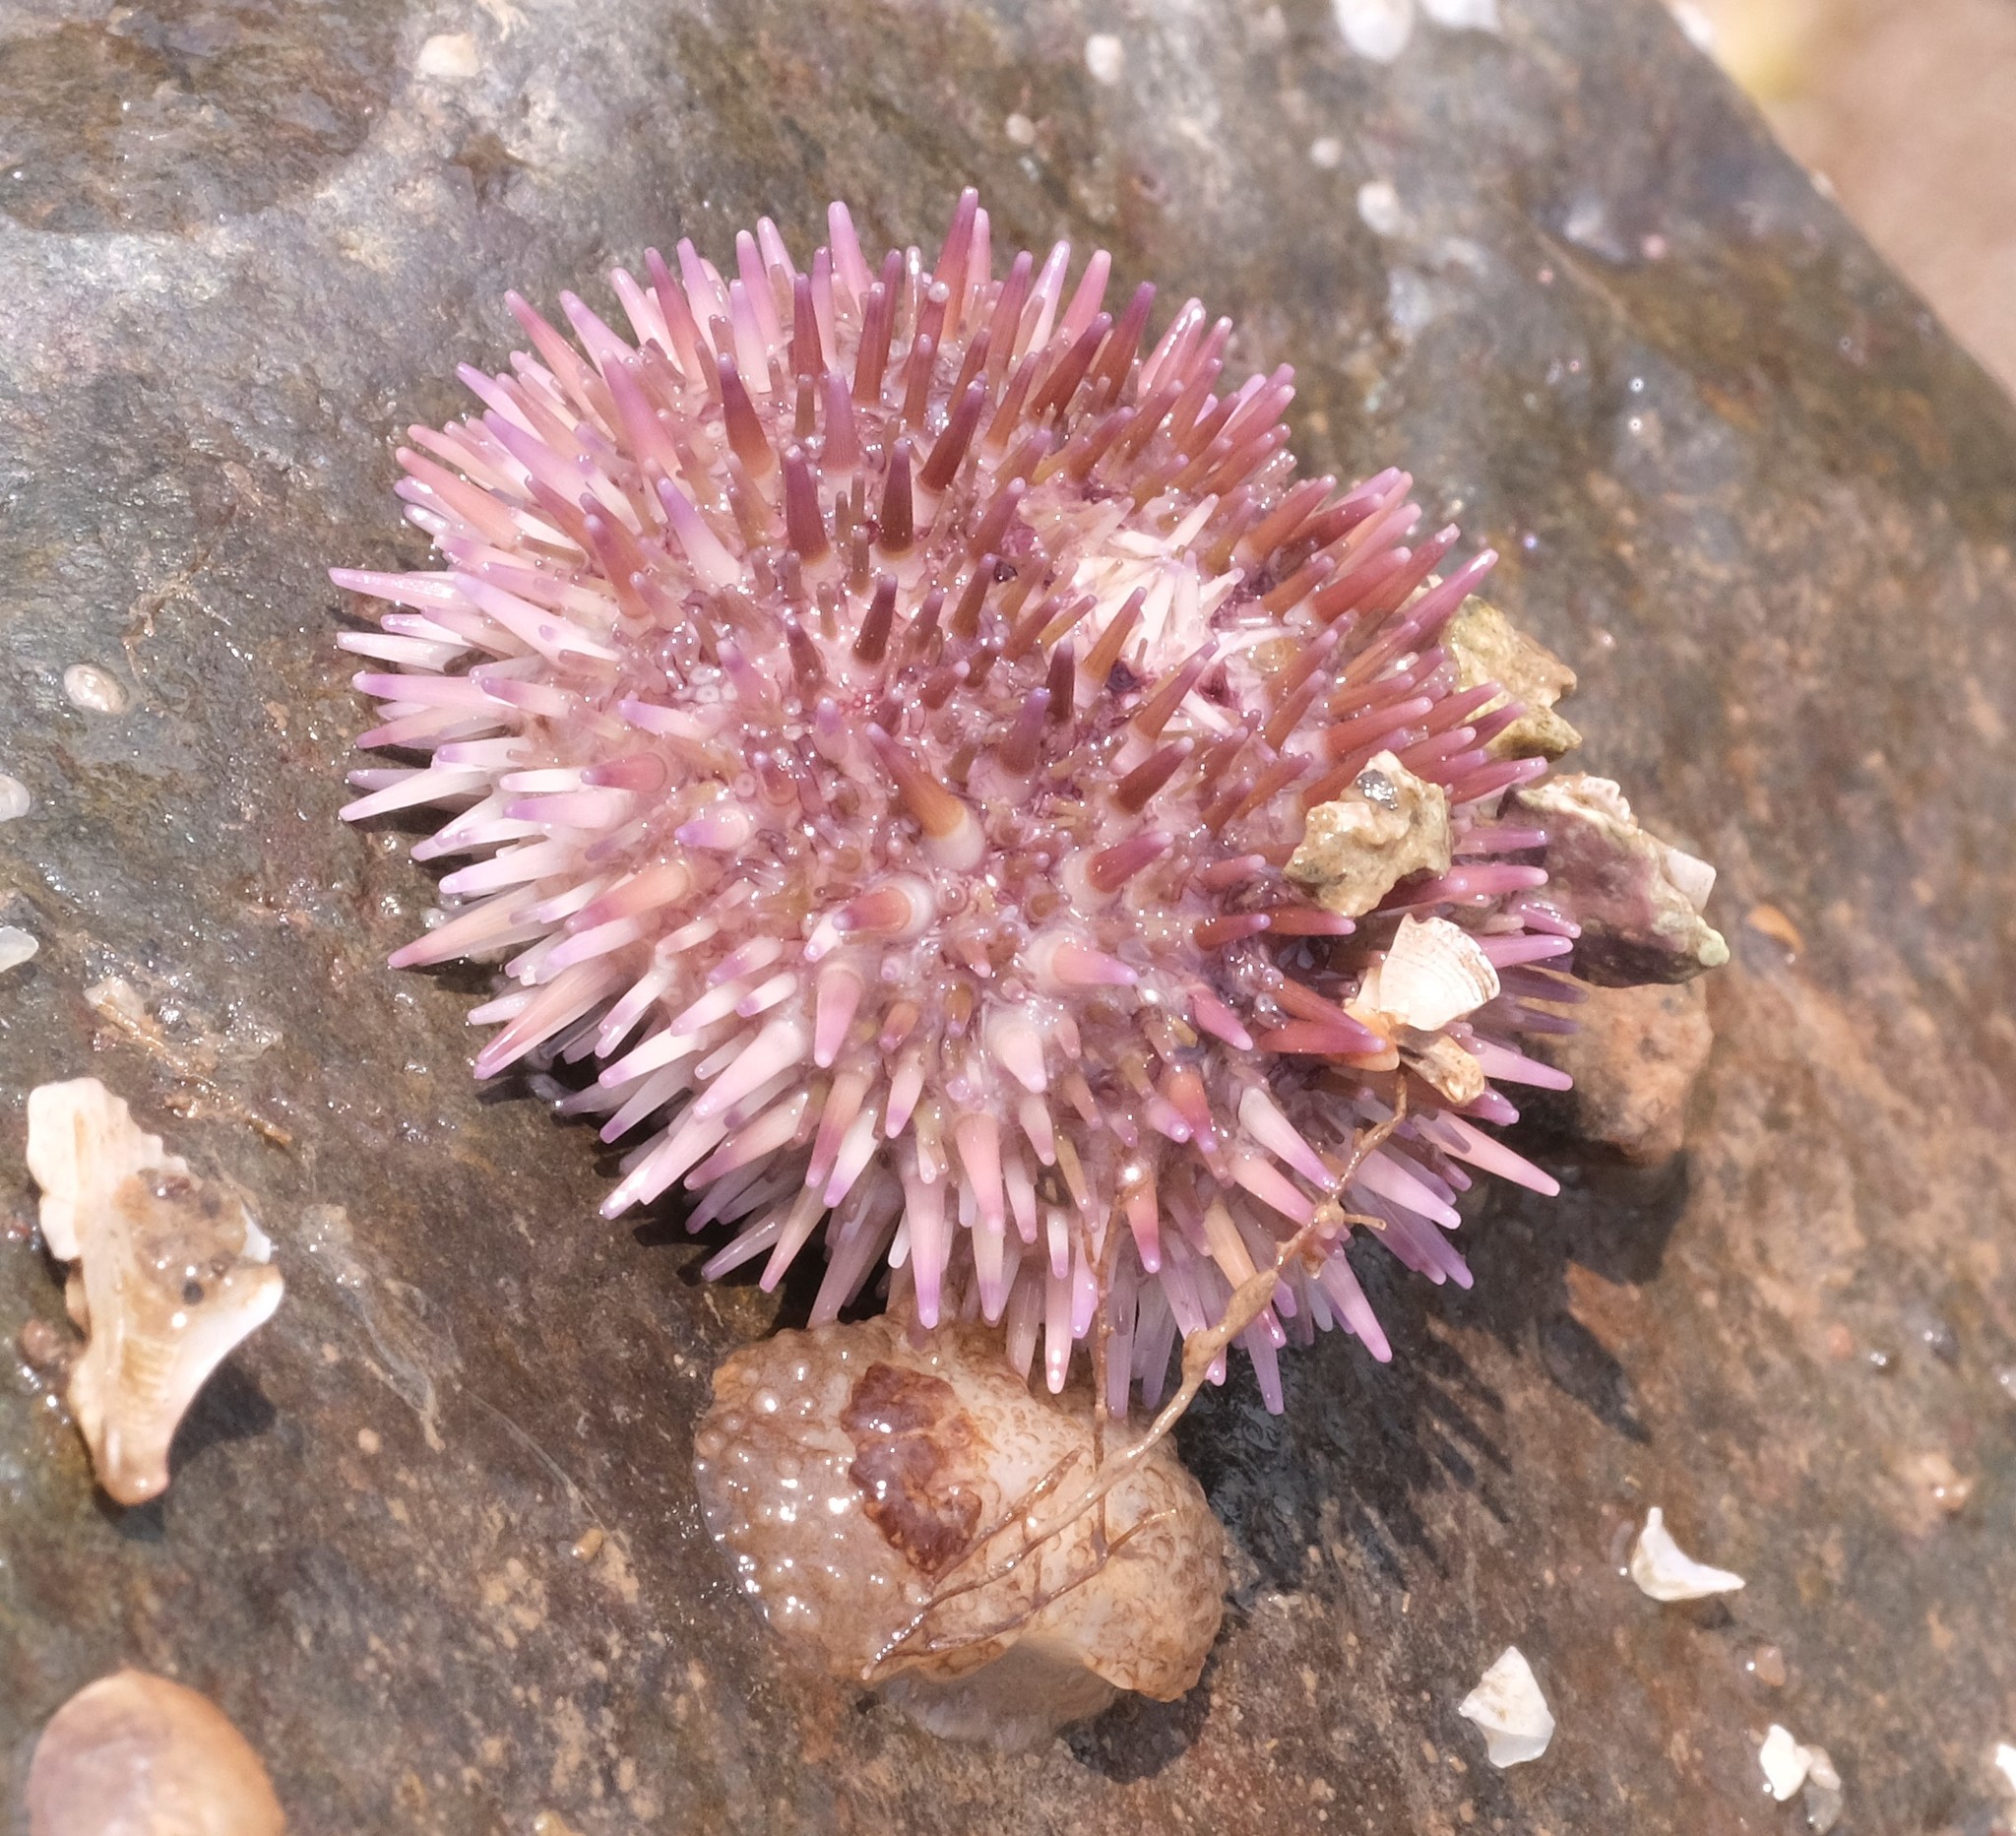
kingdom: Animalia
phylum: Echinodermata
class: Echinoidea
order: Camarodonta
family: Strongylocentrotidae
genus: Strongylocentrotus
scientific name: Strongylocentrotus droebachiensis
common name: Northern sea urchin
